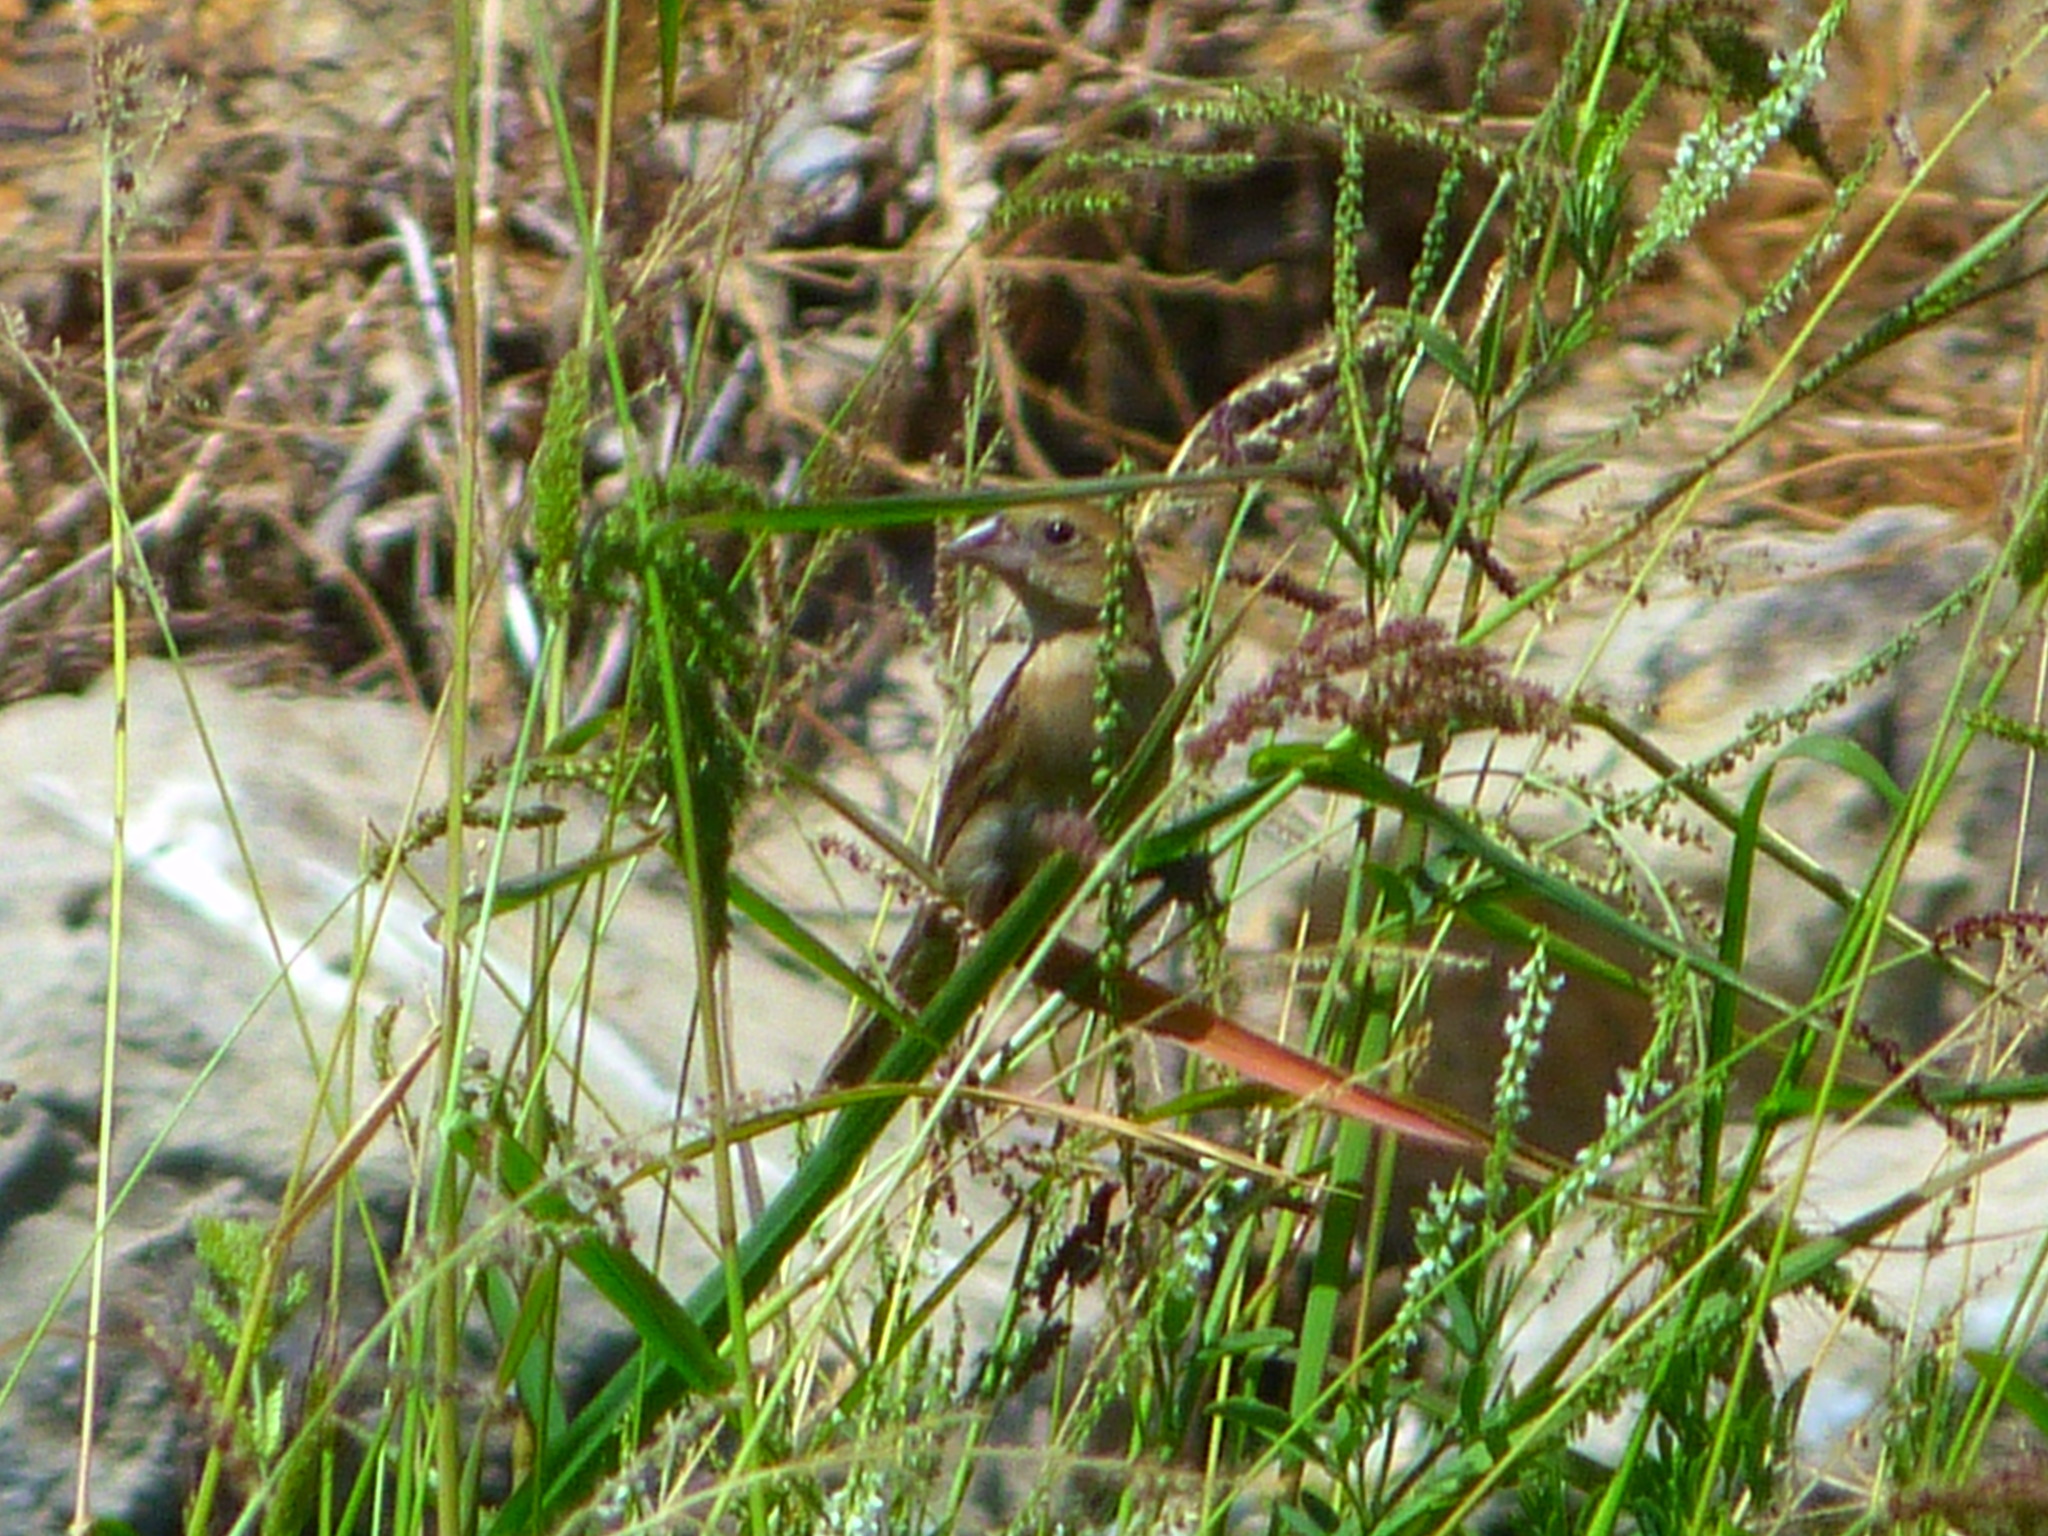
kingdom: Animalia
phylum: Chordata
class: Aves
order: Passeriformes
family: Cardinalidae
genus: Passerina
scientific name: Passerina caerulea
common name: Blue grosbeak
